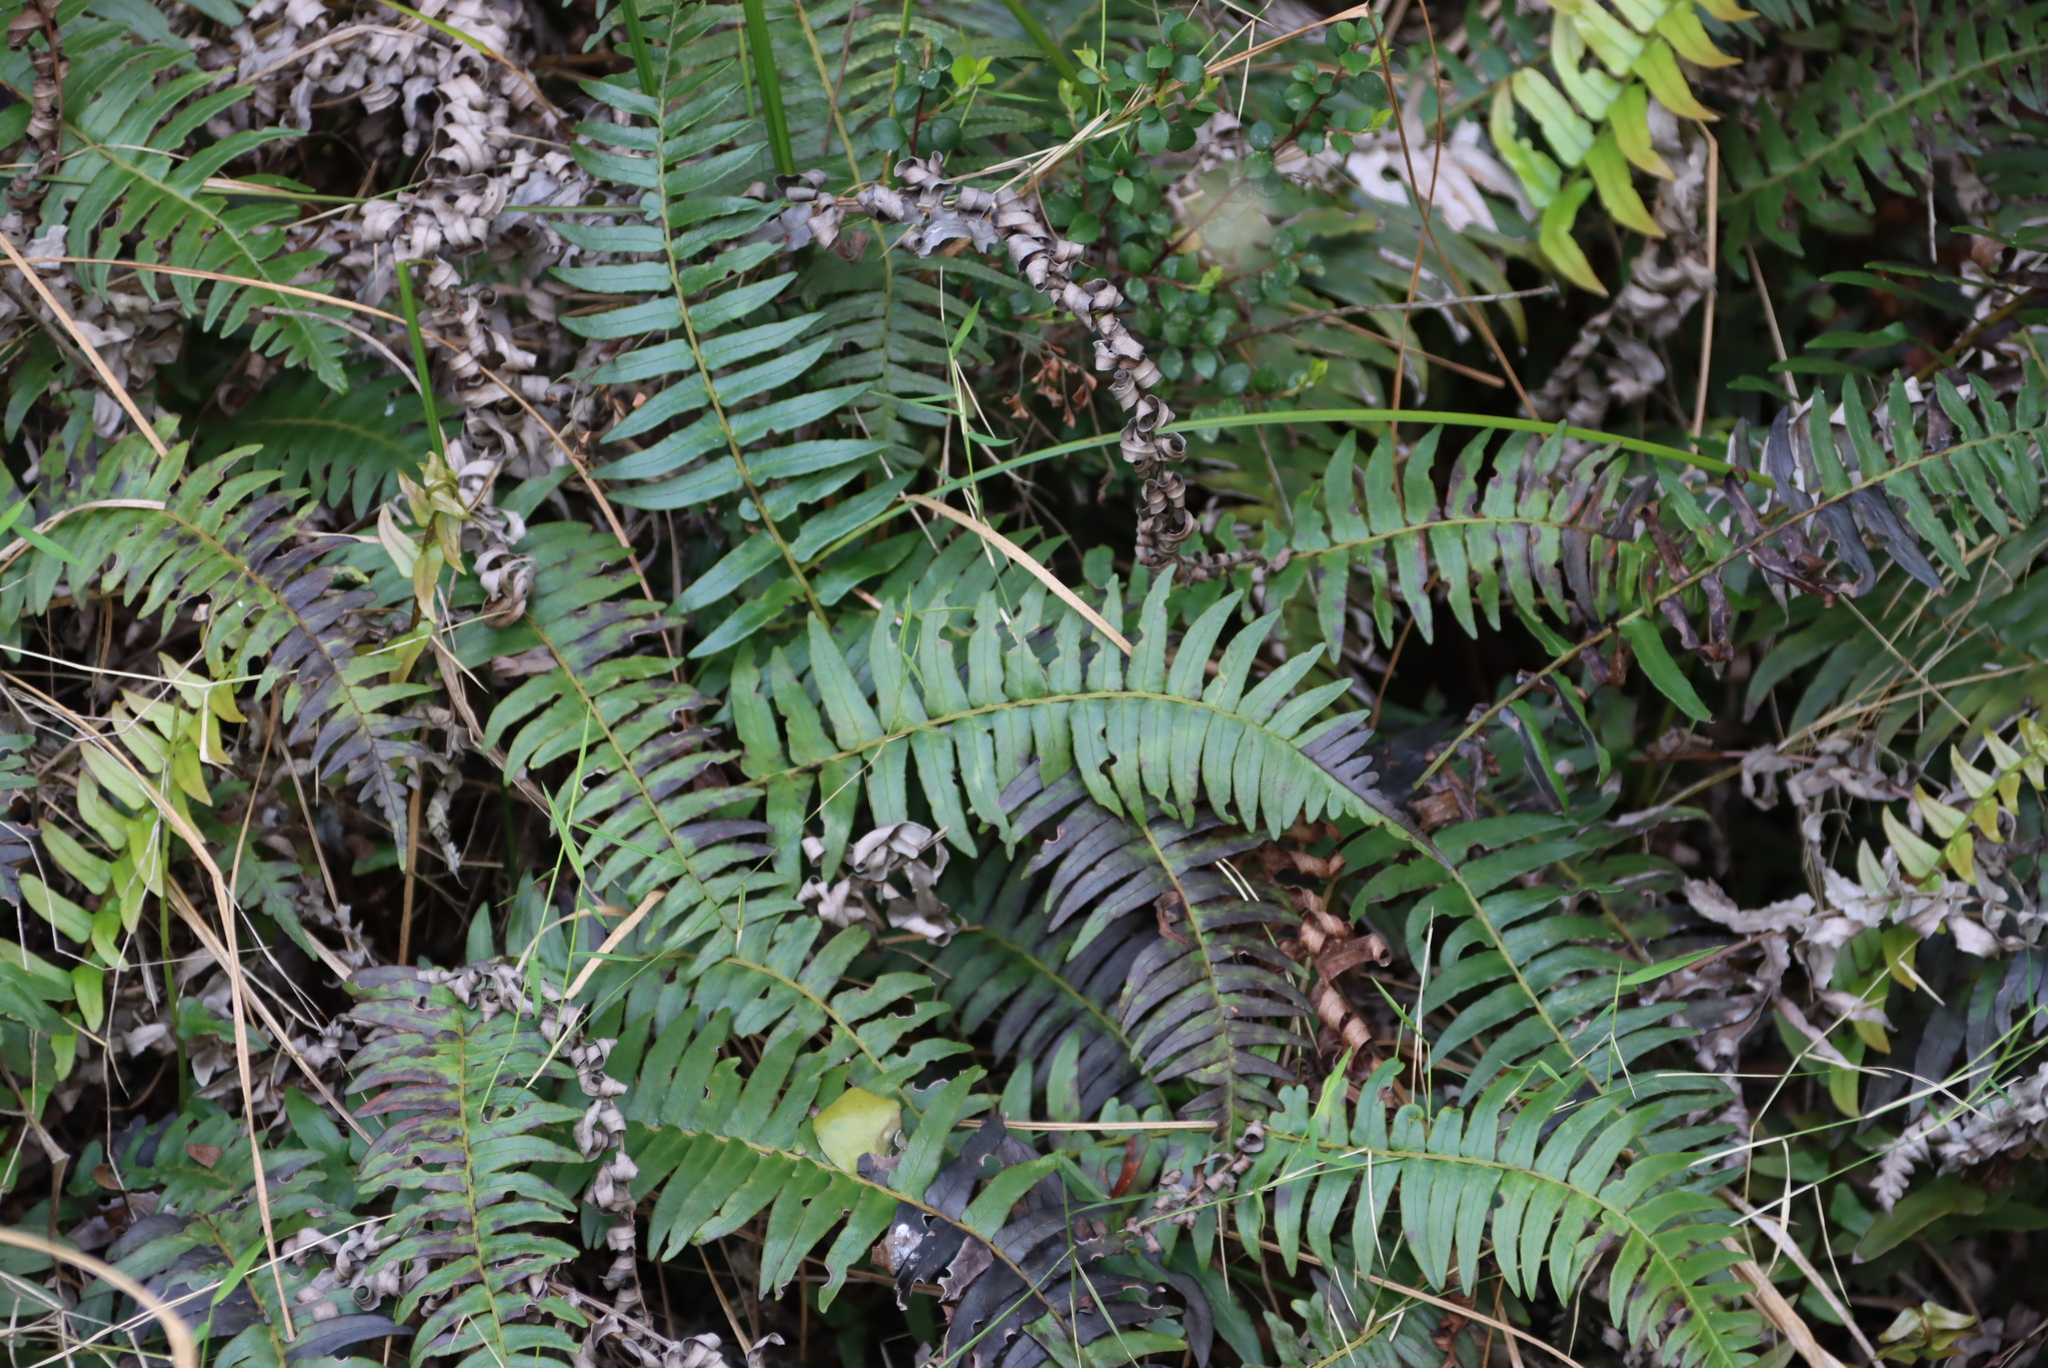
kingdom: Plantae
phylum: Tracheophyta
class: Polypodiopsida
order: Polypodiales
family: Blechnaceae
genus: Lomariocycas
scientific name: Lomariocycas tabularis
